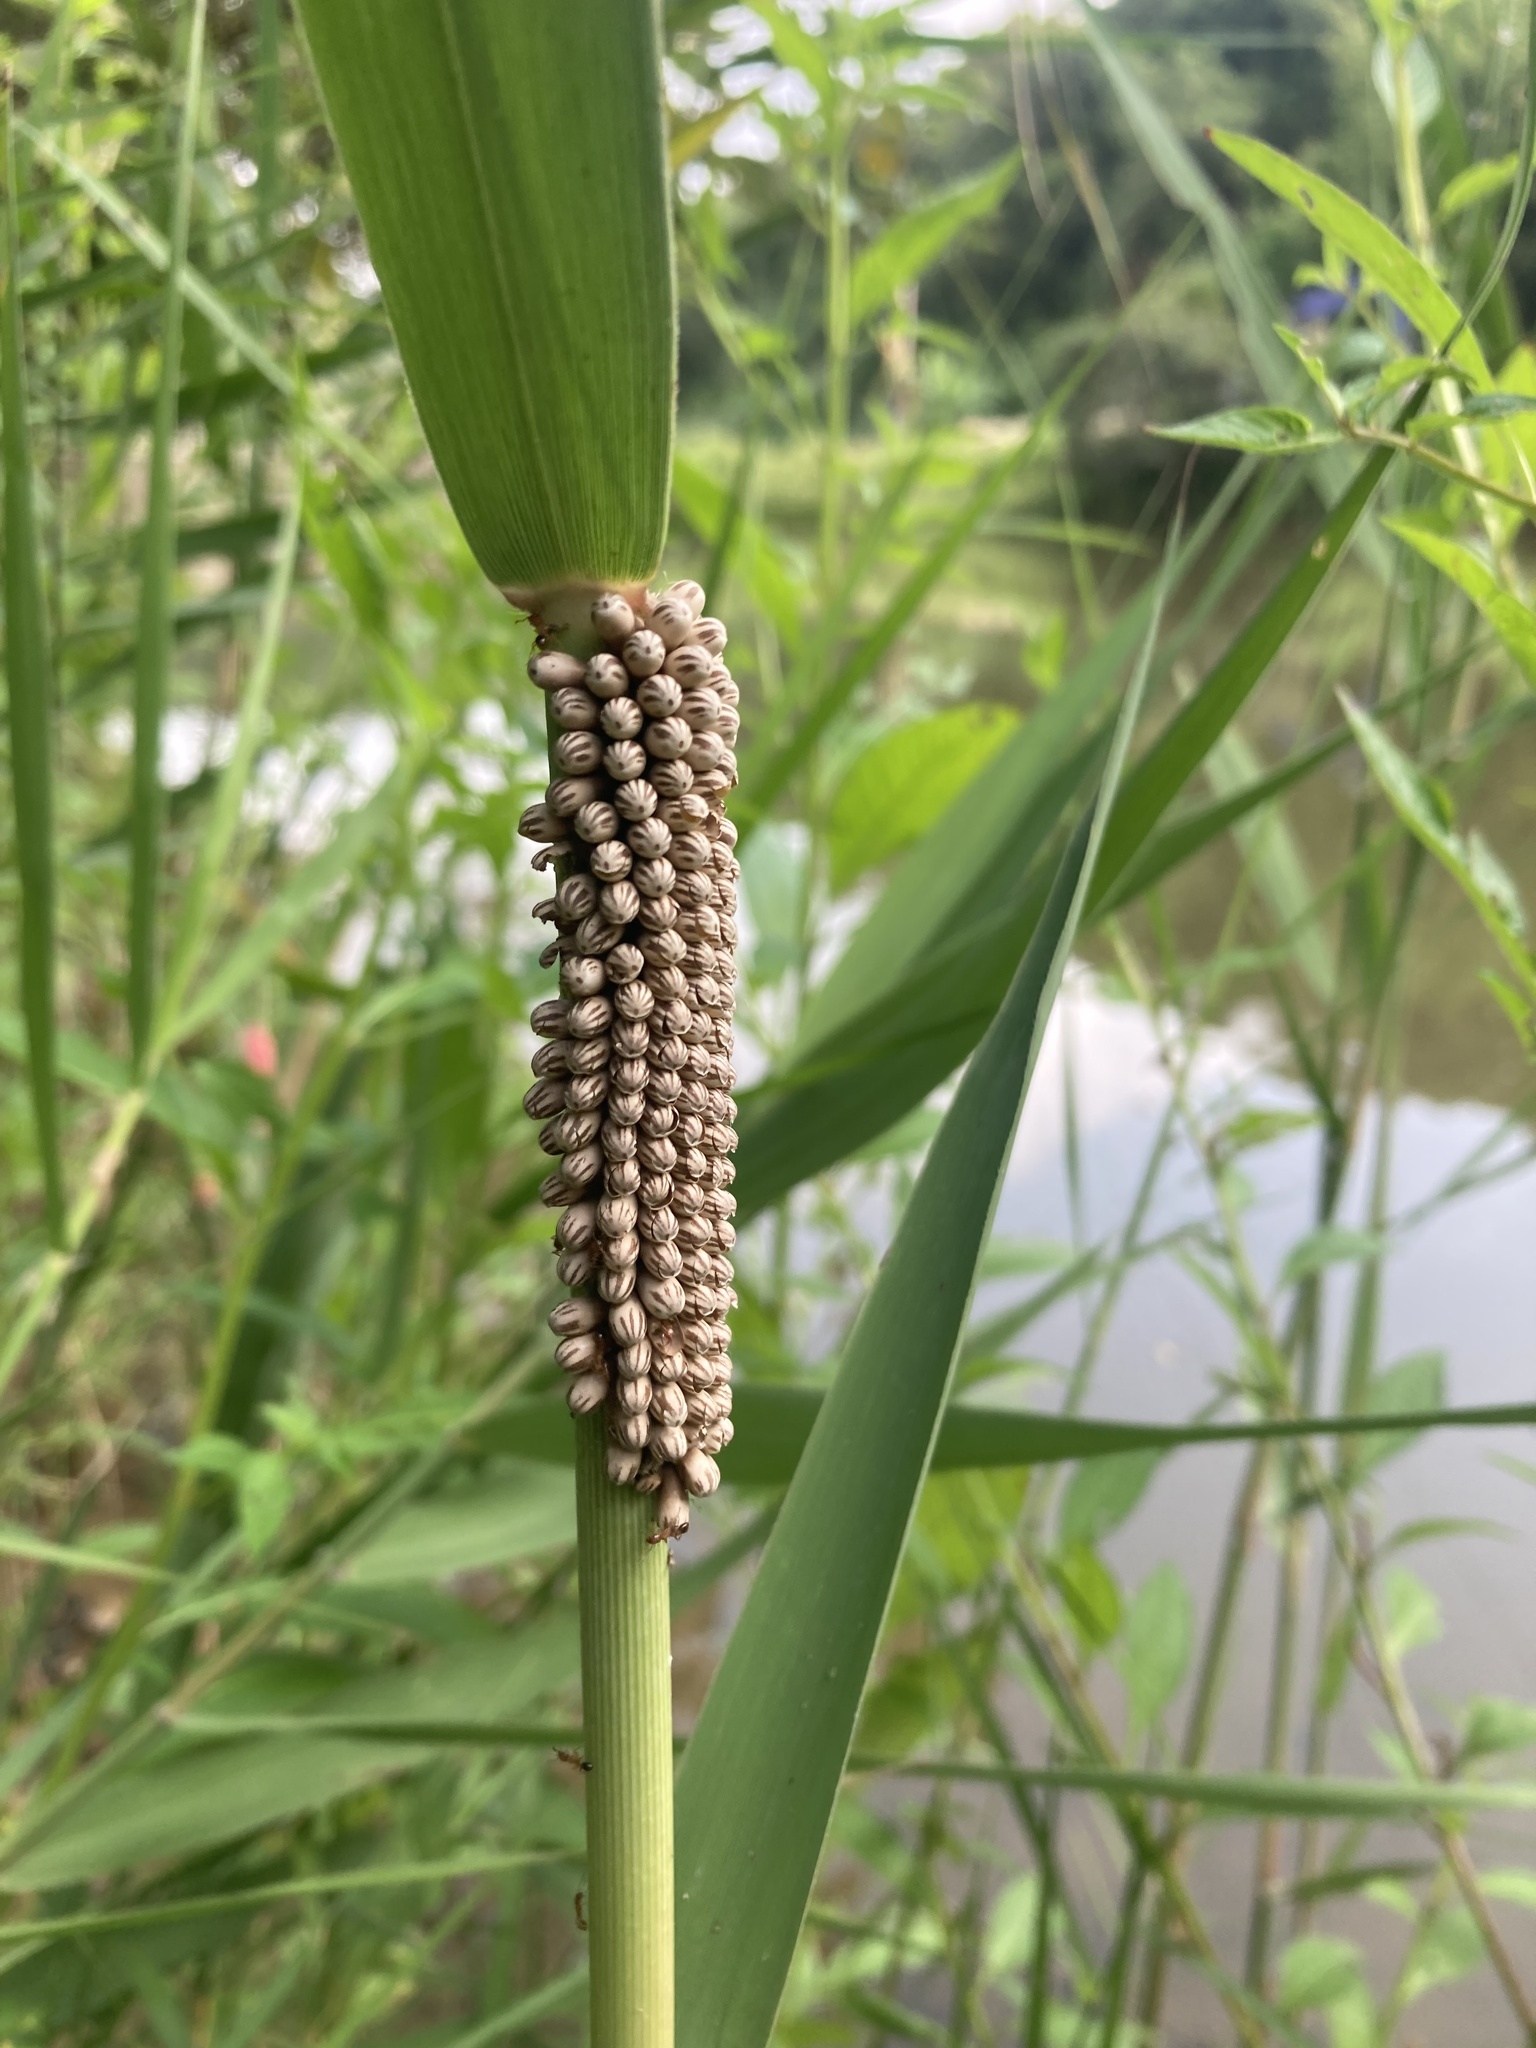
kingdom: Animalia
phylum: Arthropoda
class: Insecta
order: Hemiptera
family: Belostomatidae
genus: Lethocerus
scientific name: Lethocerus indicus
